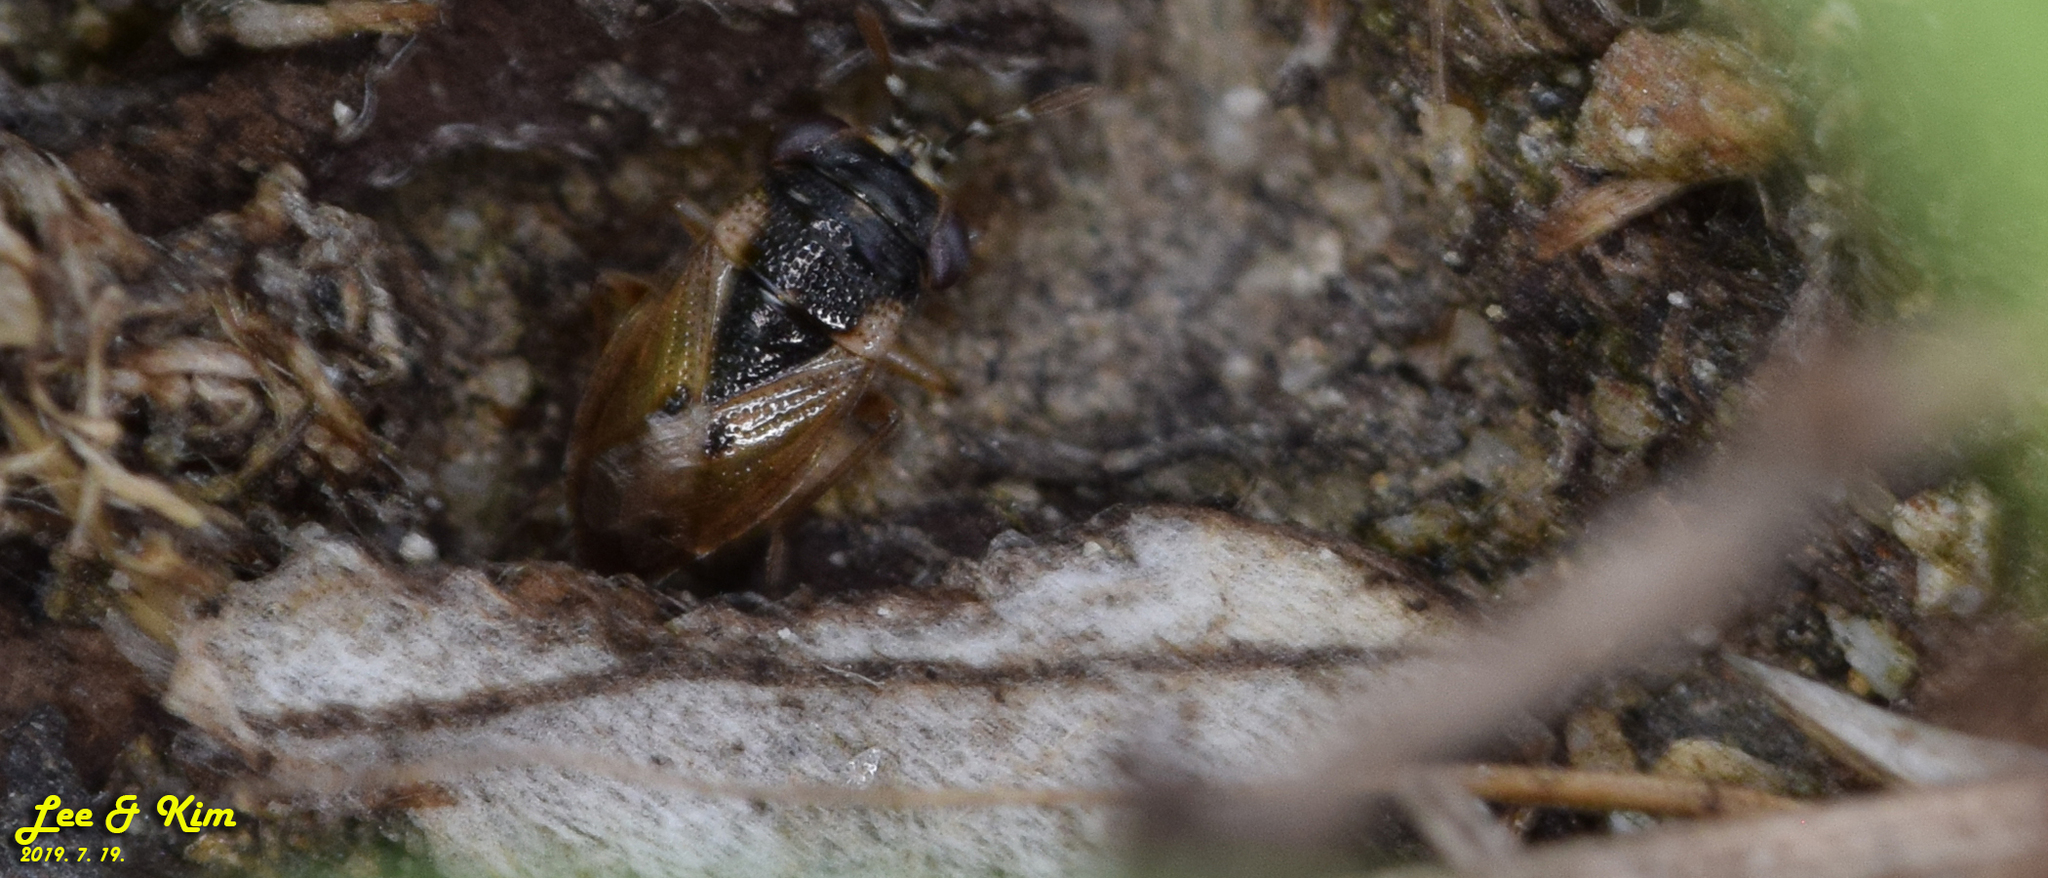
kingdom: Animalia
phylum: Arthropoda
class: Insecta
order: Hemiptera
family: Geocoridae
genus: Geocoris
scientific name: Geocoris pallidipennis
